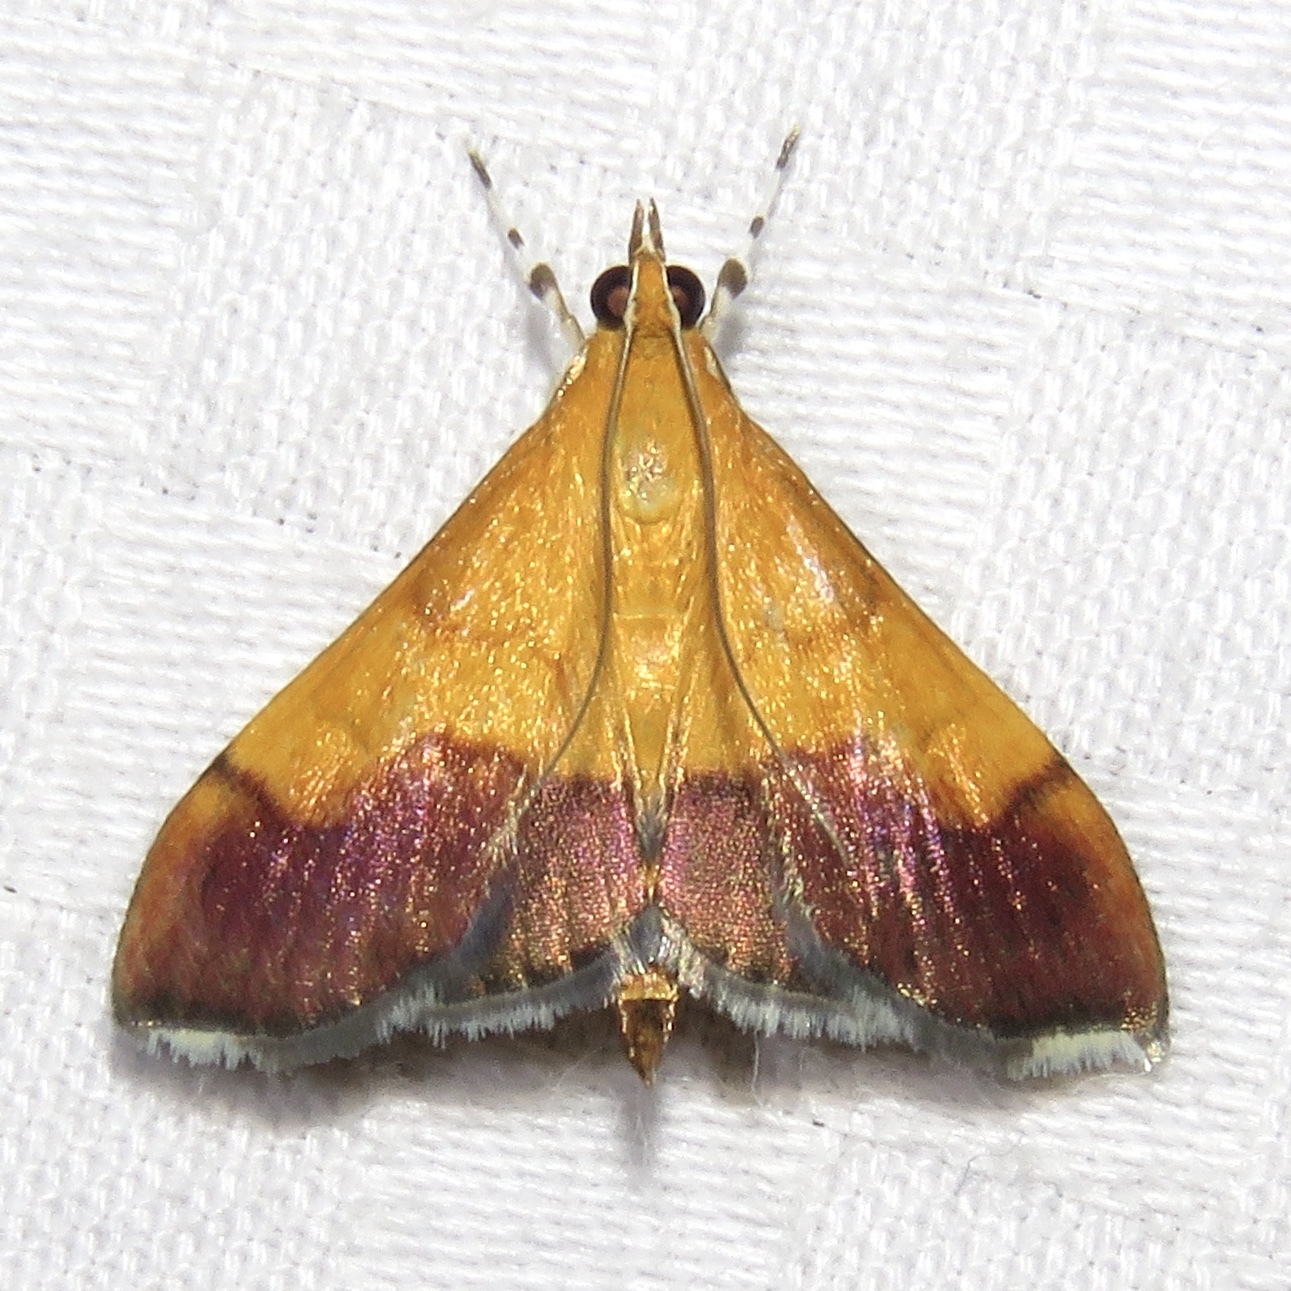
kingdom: Animalia
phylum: Arthropoda
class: Insecta
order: Lepidoptera
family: Crambidae
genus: Pyrausta
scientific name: Pyrausta bicoloralis
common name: Bicolored pyrausta moth
